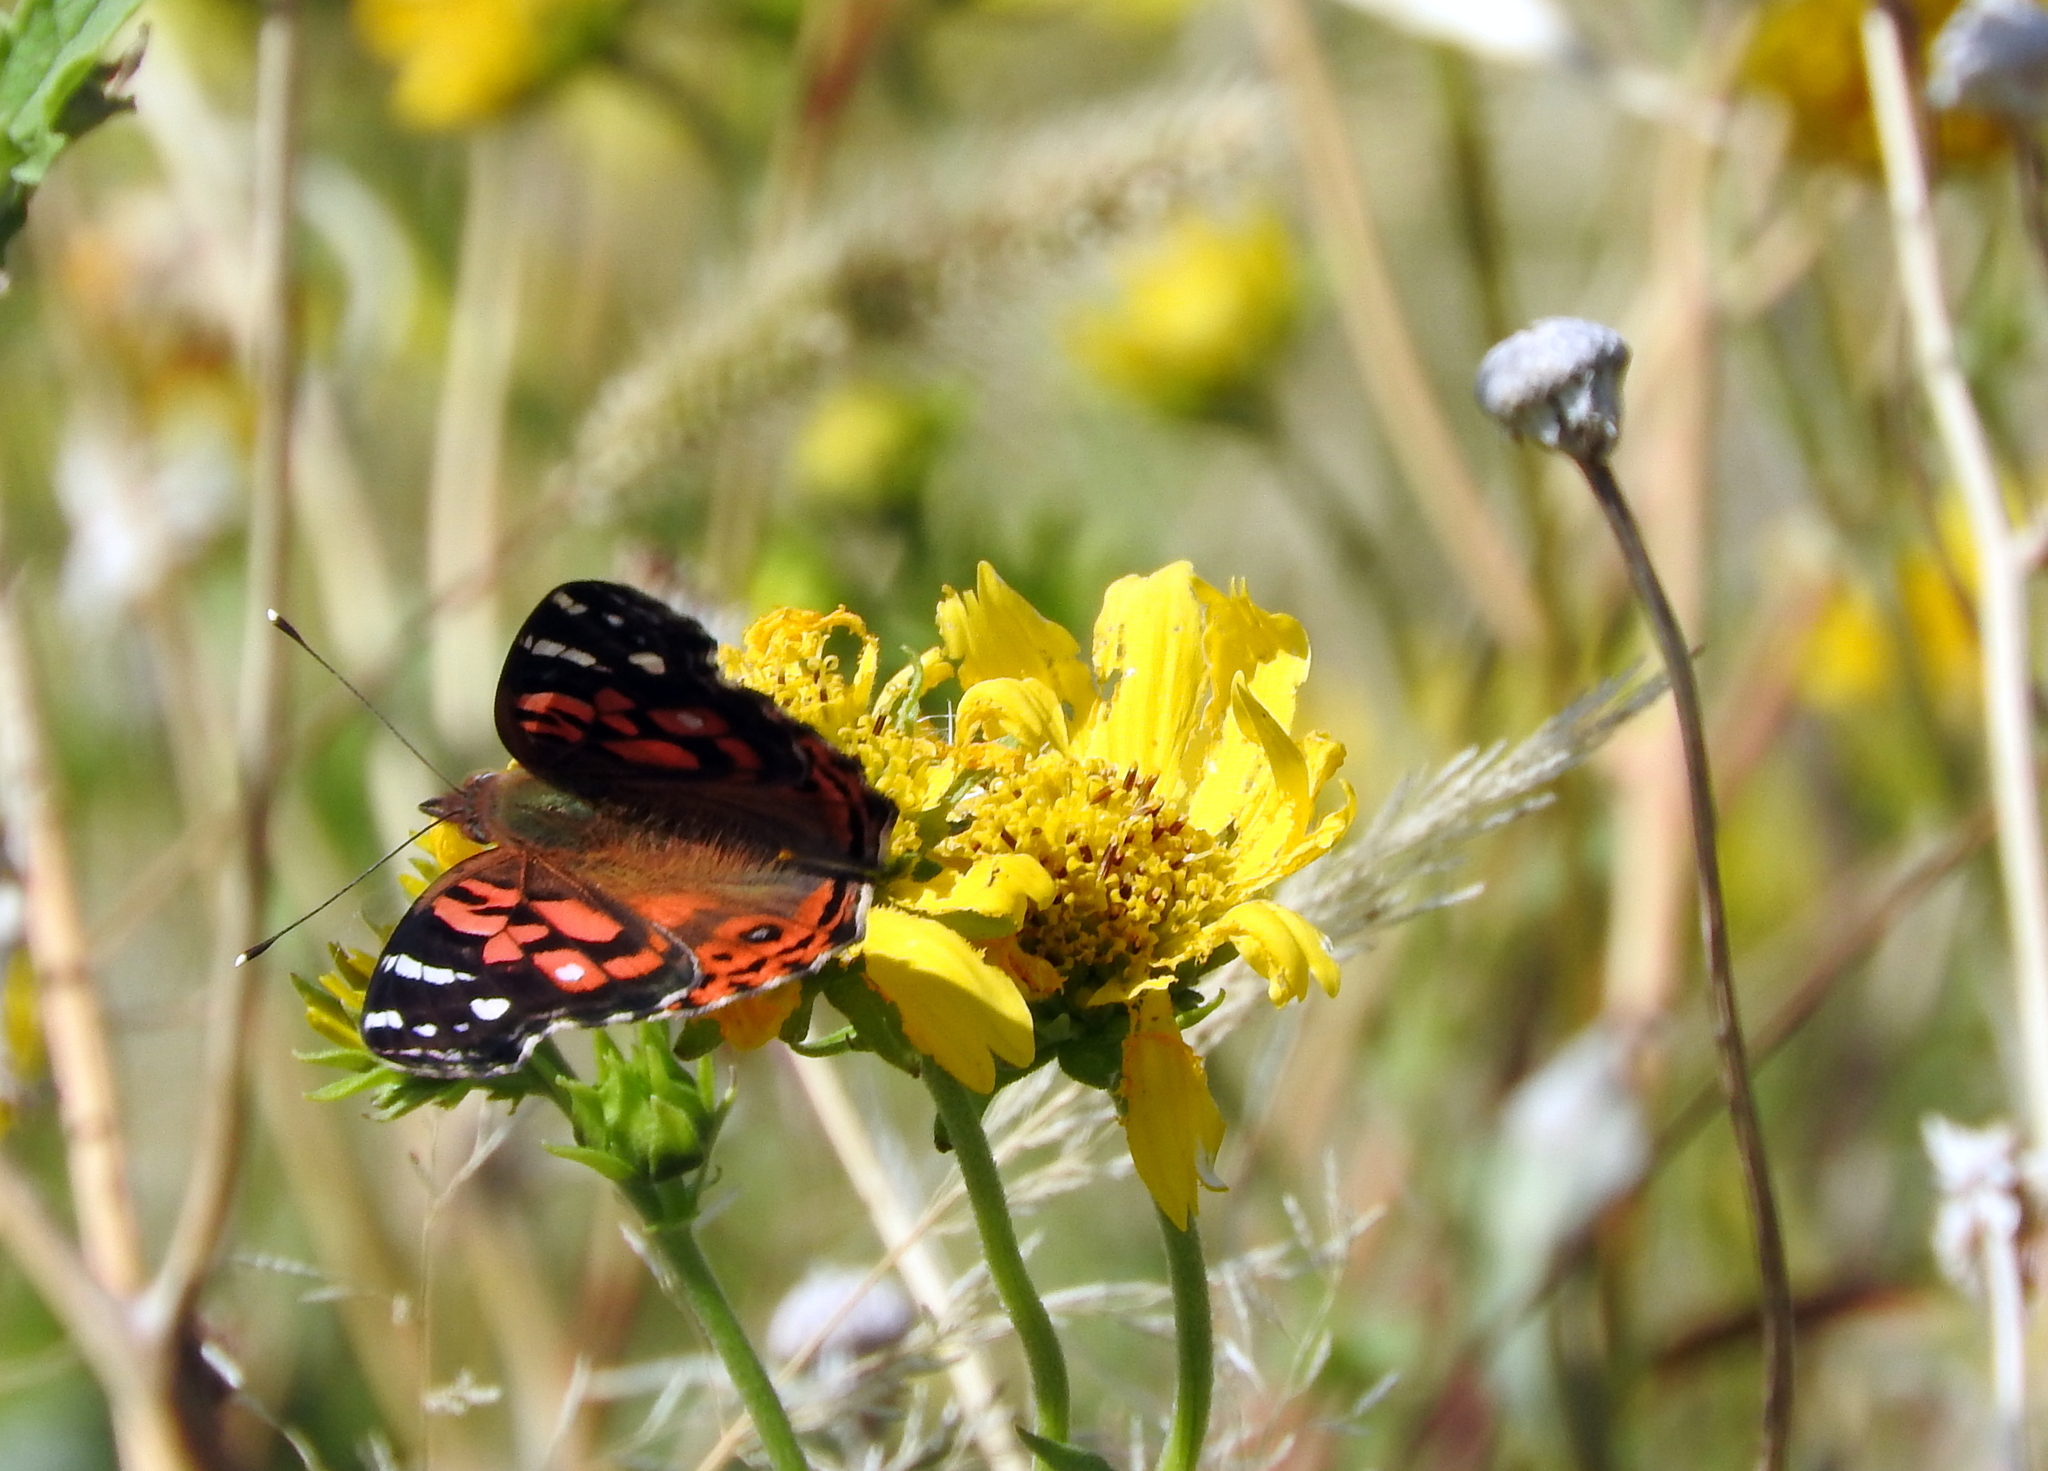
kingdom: Animalia
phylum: Arthropoda
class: Insecta
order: Lepidoptera
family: Nymphalidae
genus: Vanessa
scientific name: Vanessa braziliensis
